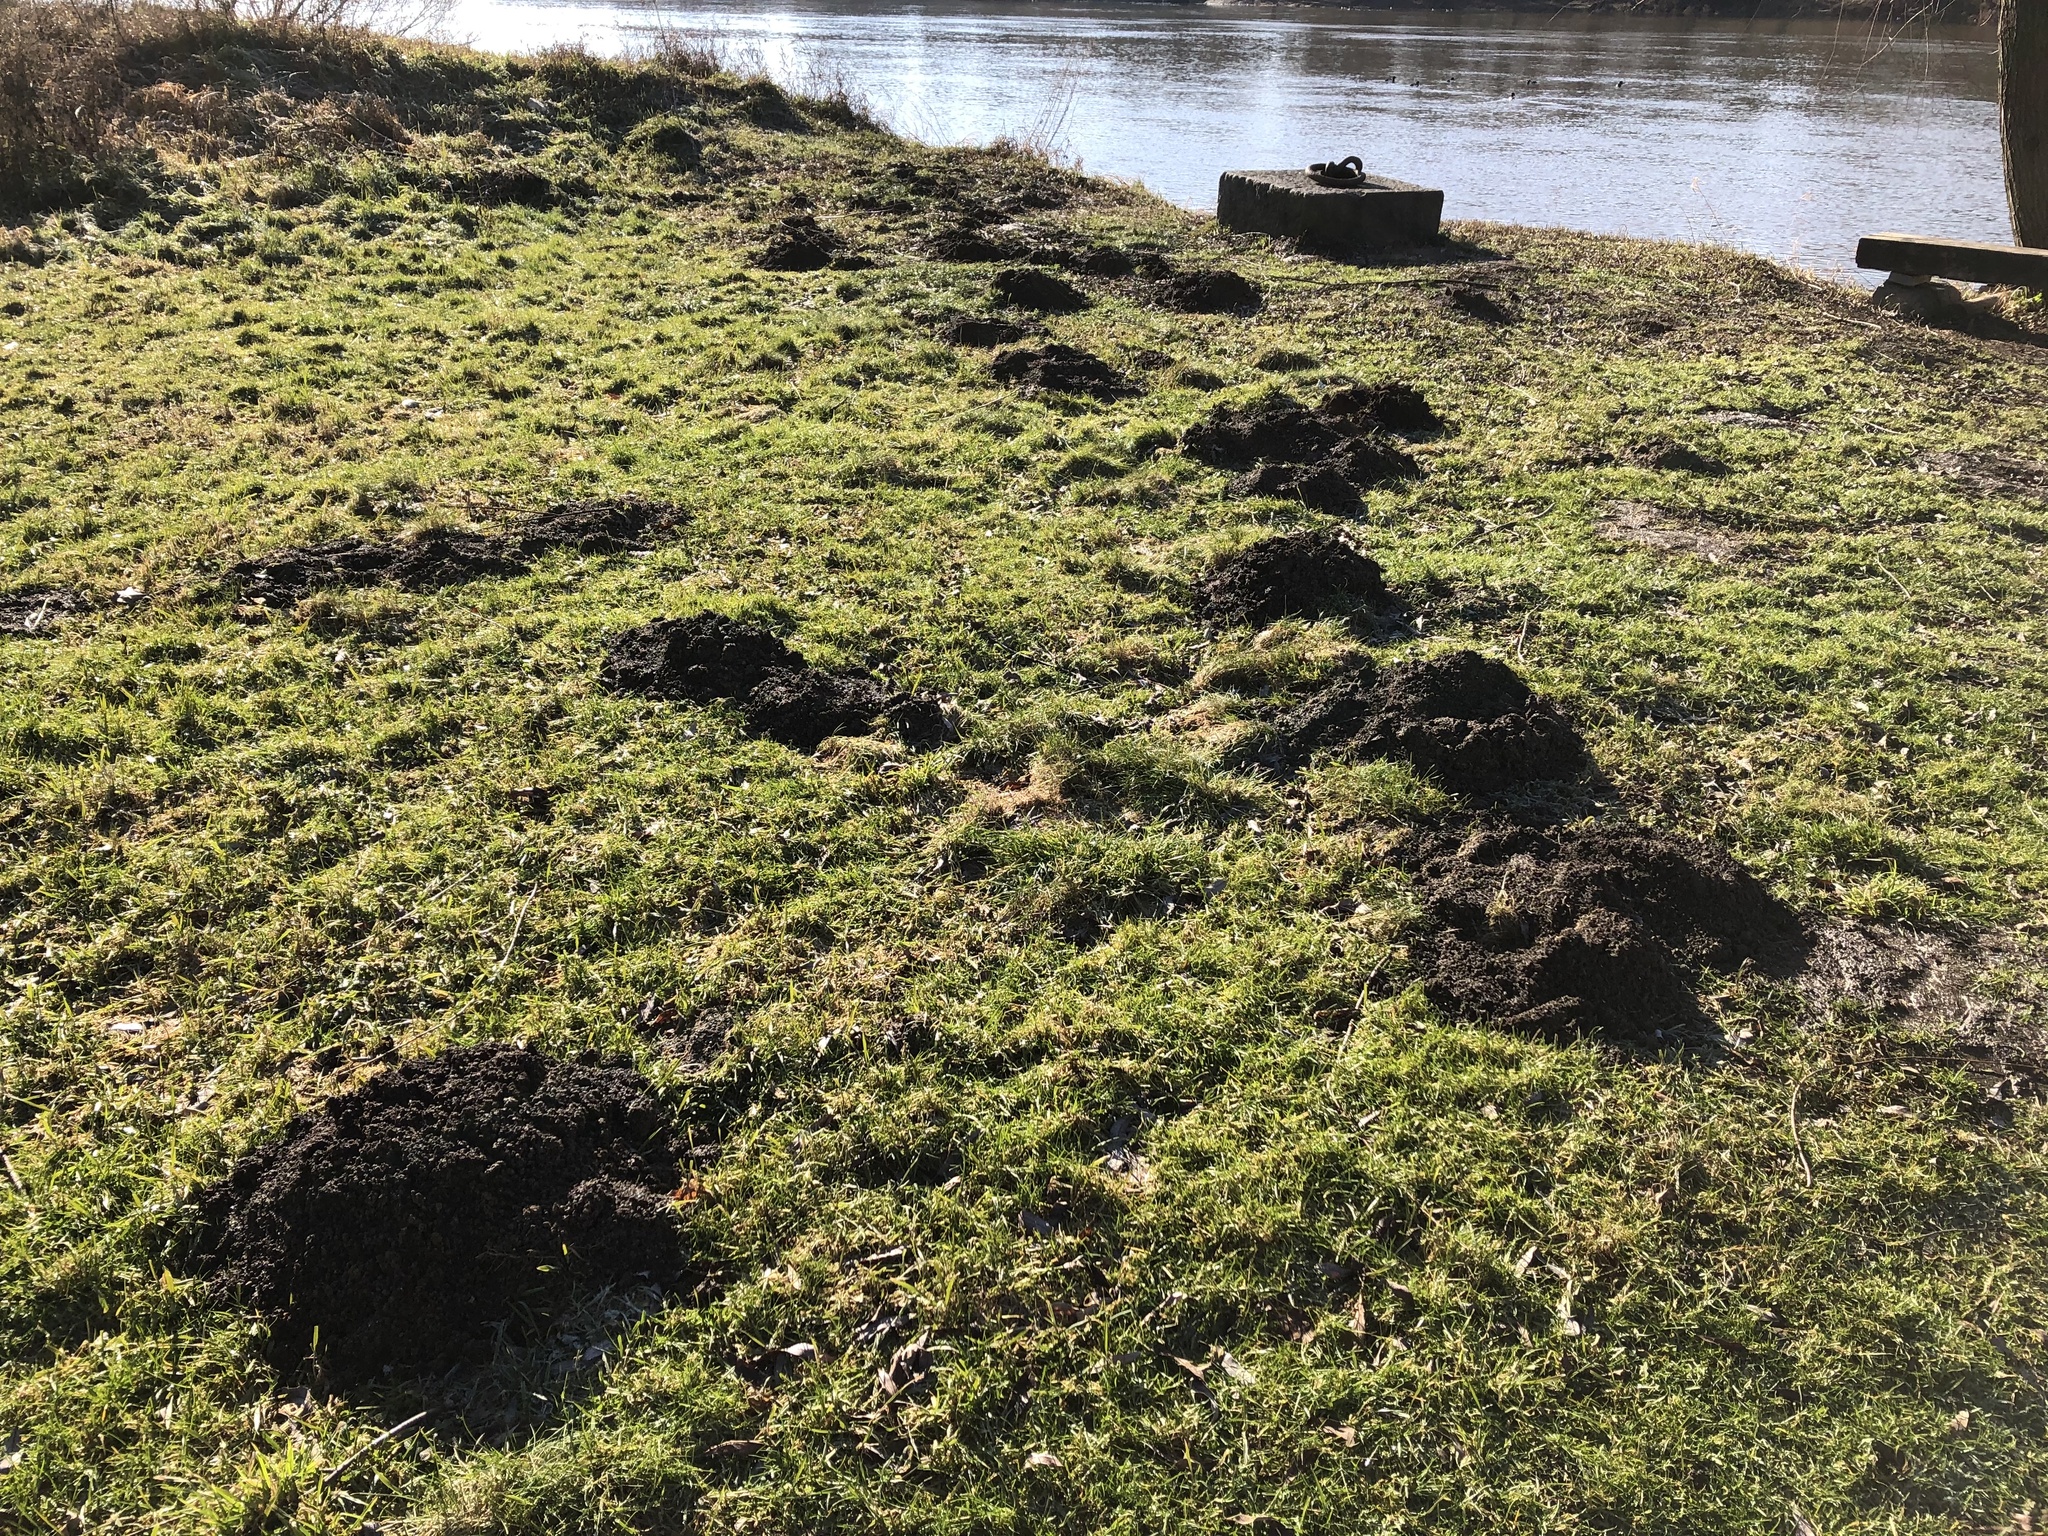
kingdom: Animalia
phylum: Chordata
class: Mammalia
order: Soricomorpha
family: Talpidae
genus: Talpa
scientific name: Talpa europaea
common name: European mole
